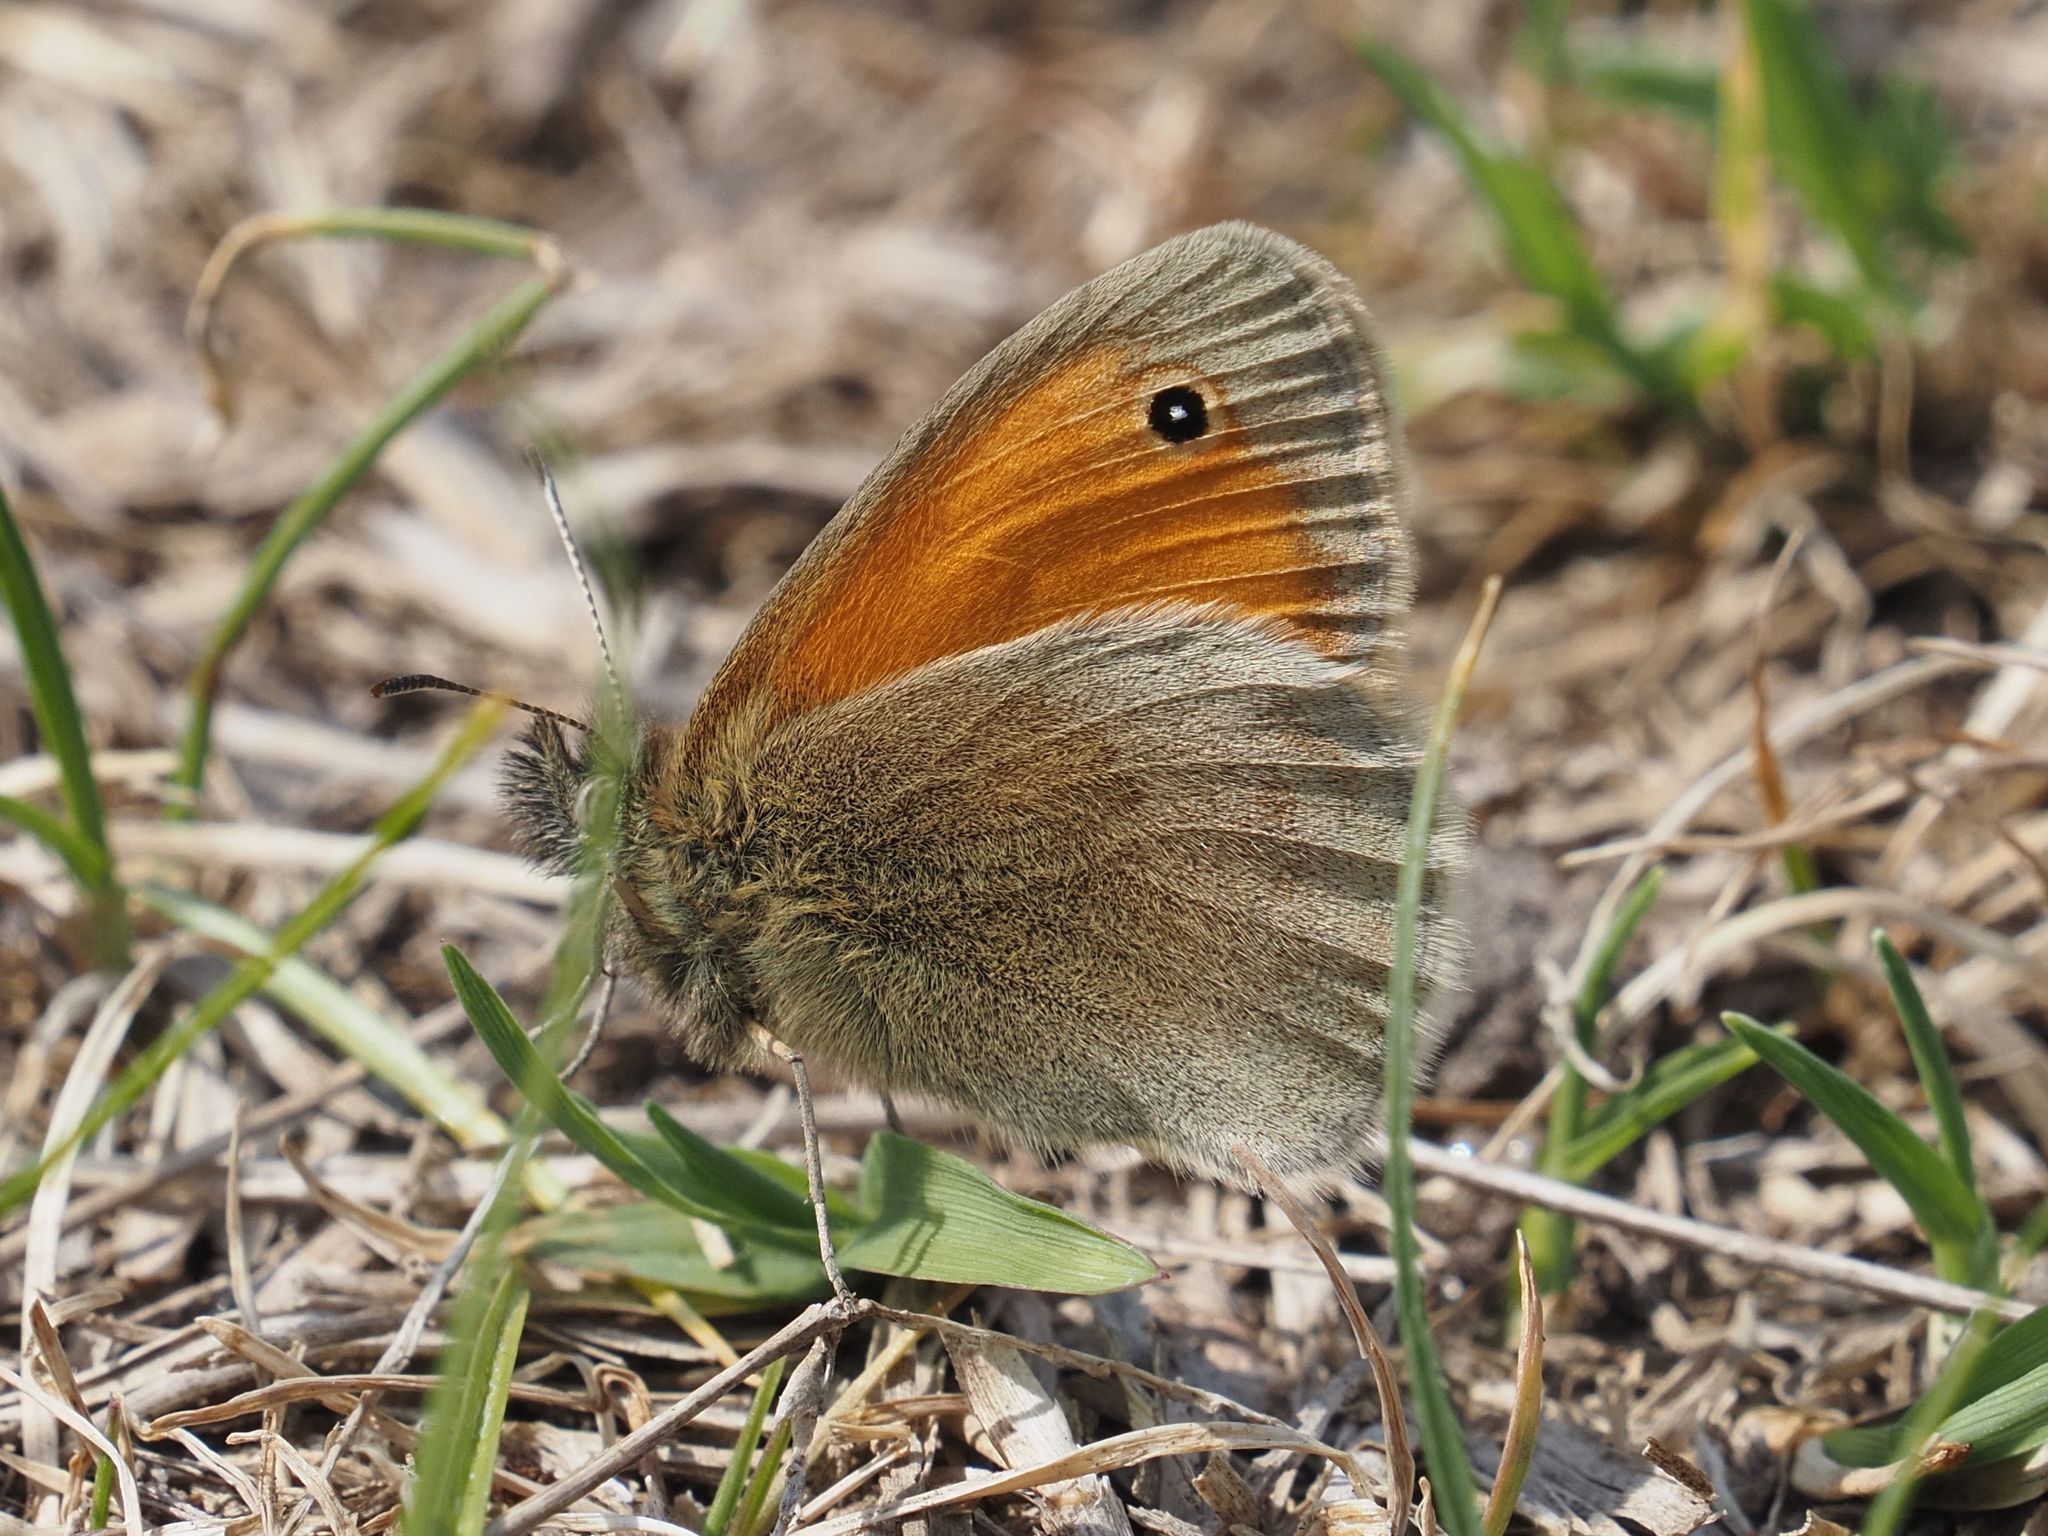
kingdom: Animalia
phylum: Arthropoda
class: Insecta
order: Lepidoptera
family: Nymphalidae
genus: Coenonympha
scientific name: Coenonympha pamphilus
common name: Small heath
